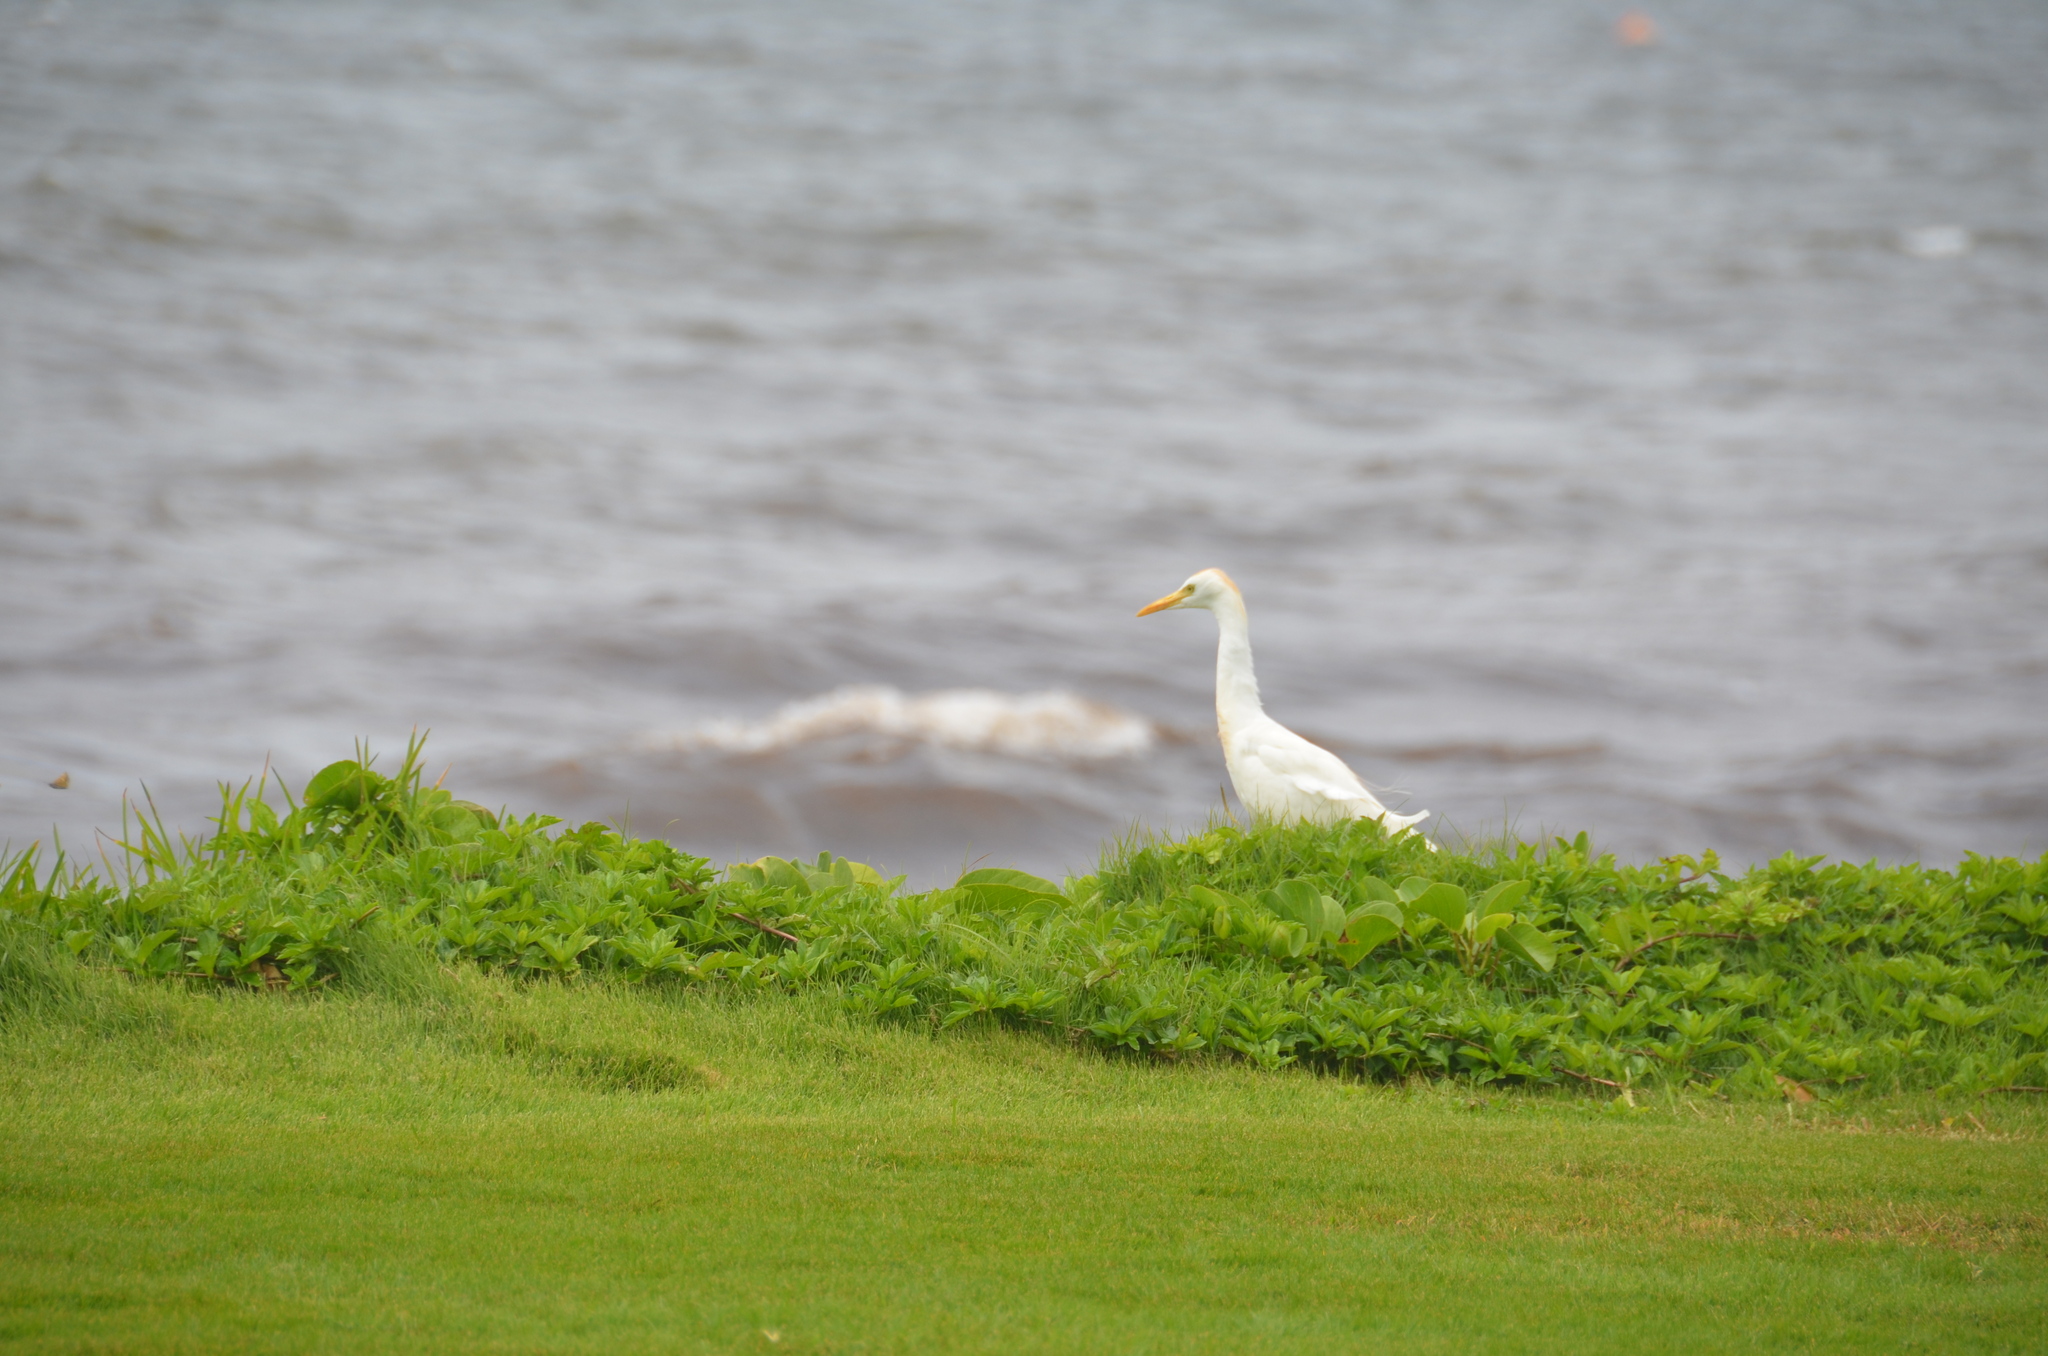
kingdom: Animalia
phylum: Chordata
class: Aves
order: Pelecaniformes
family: Ardeidae
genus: Bubulcus
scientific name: Bubulcus ibis
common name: Cattle egret
